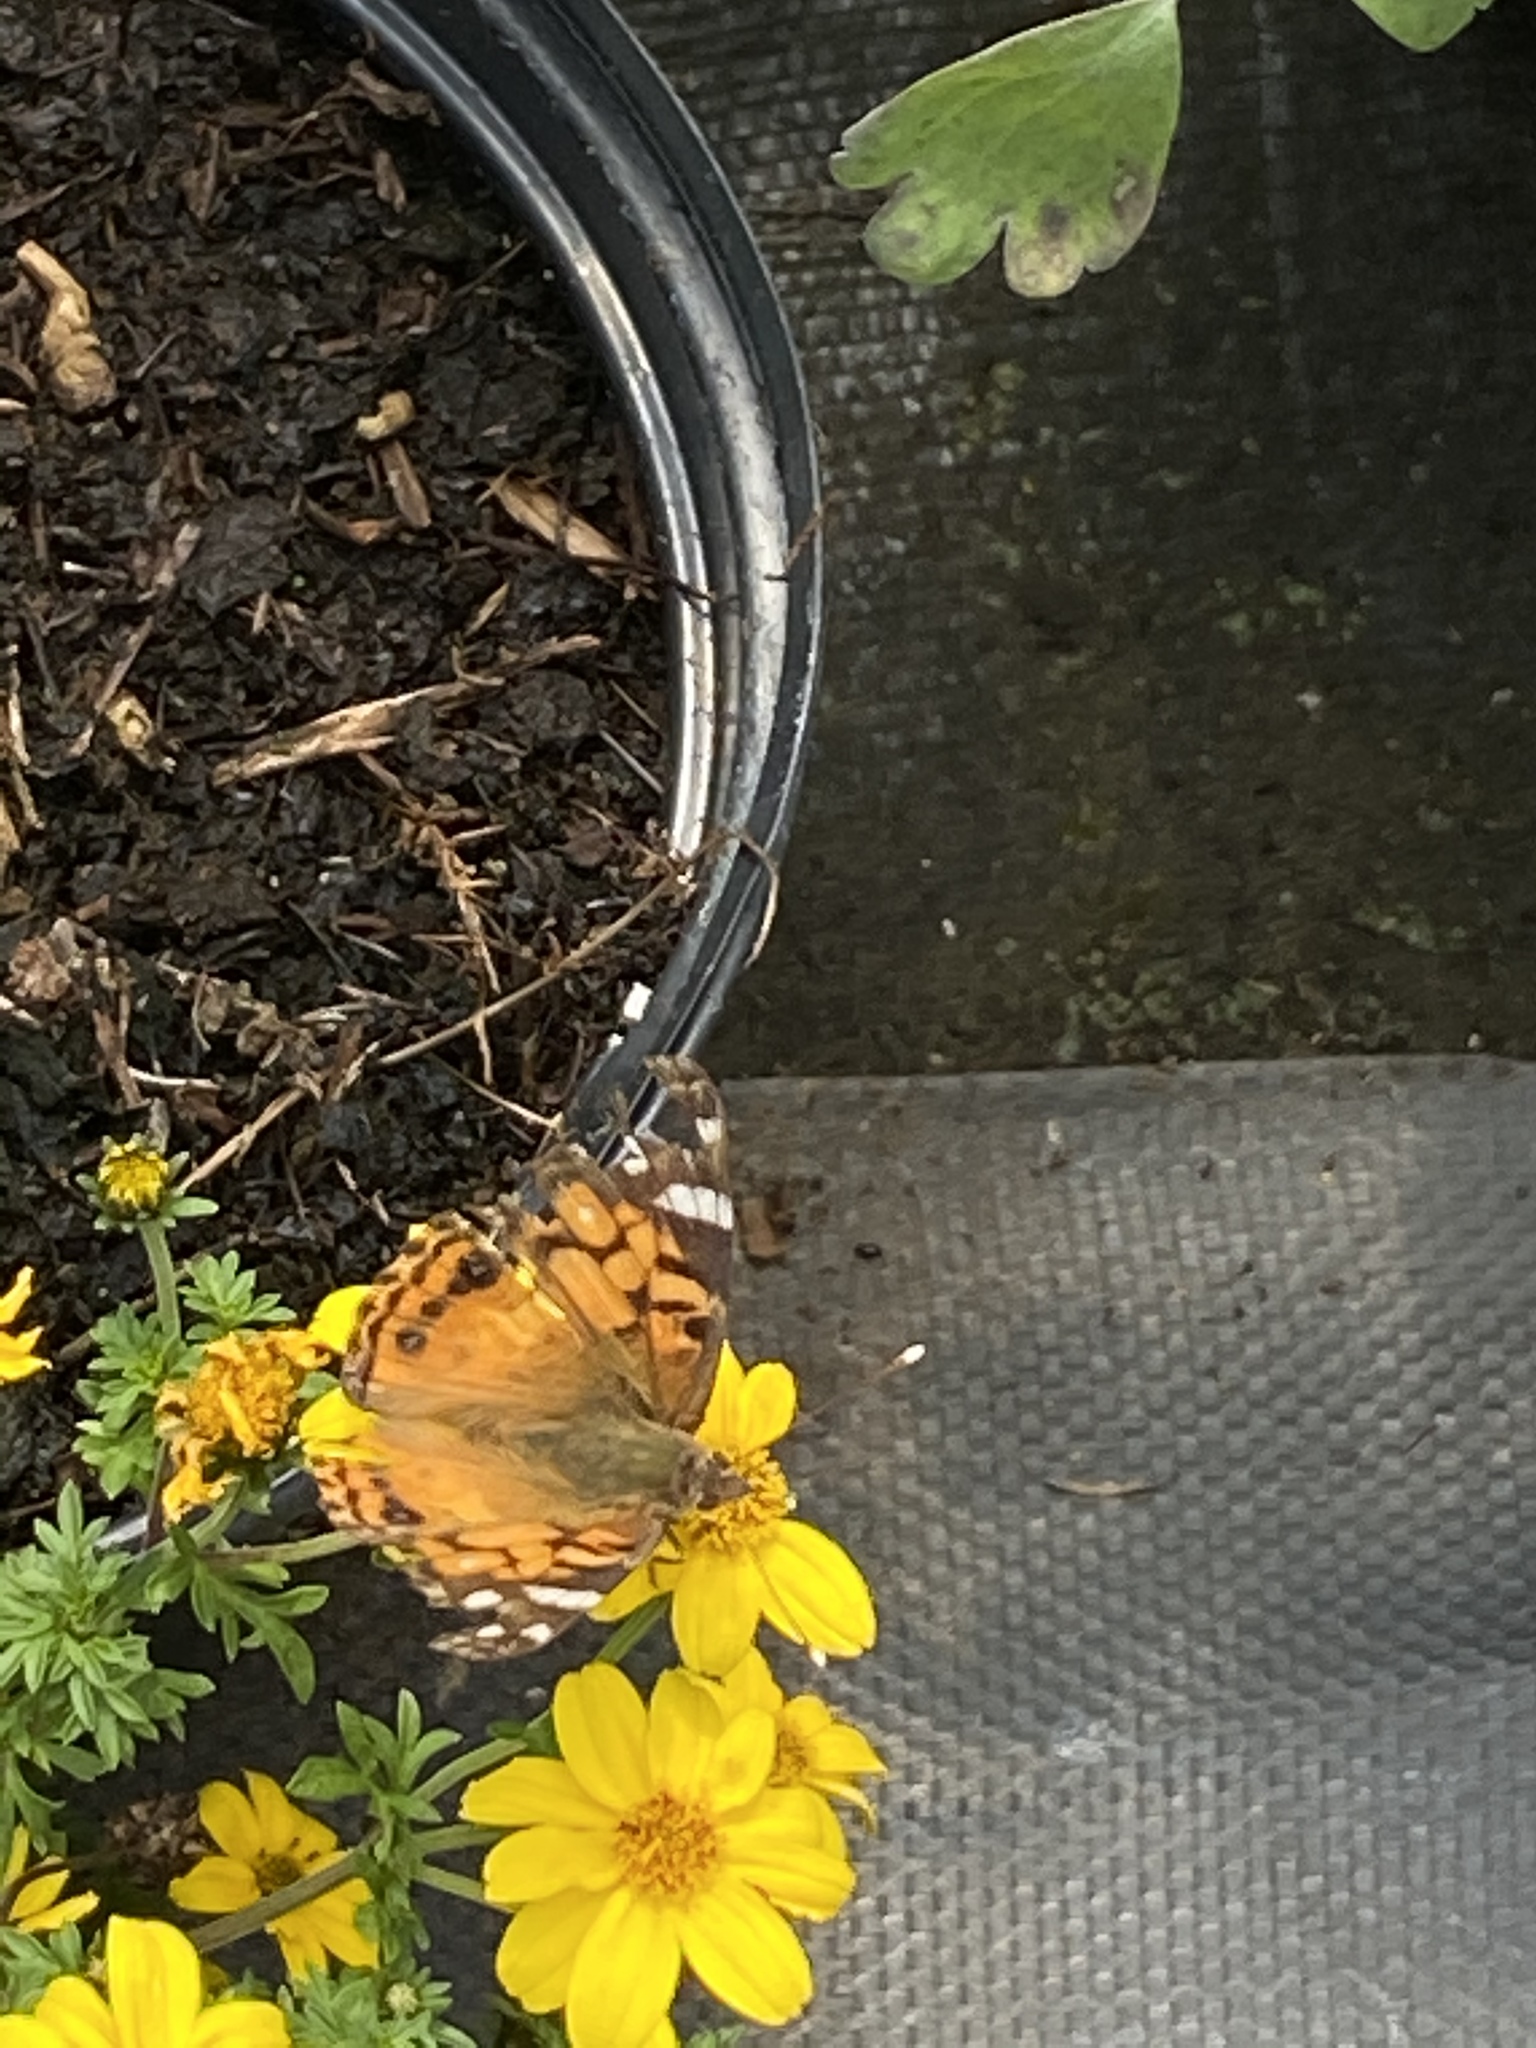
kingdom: Animalia
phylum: Arthropoda
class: Insecta
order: Lepidoptera
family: Nymphalidae
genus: Vanessa
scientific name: Vanessa virginiensis
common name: American lady
